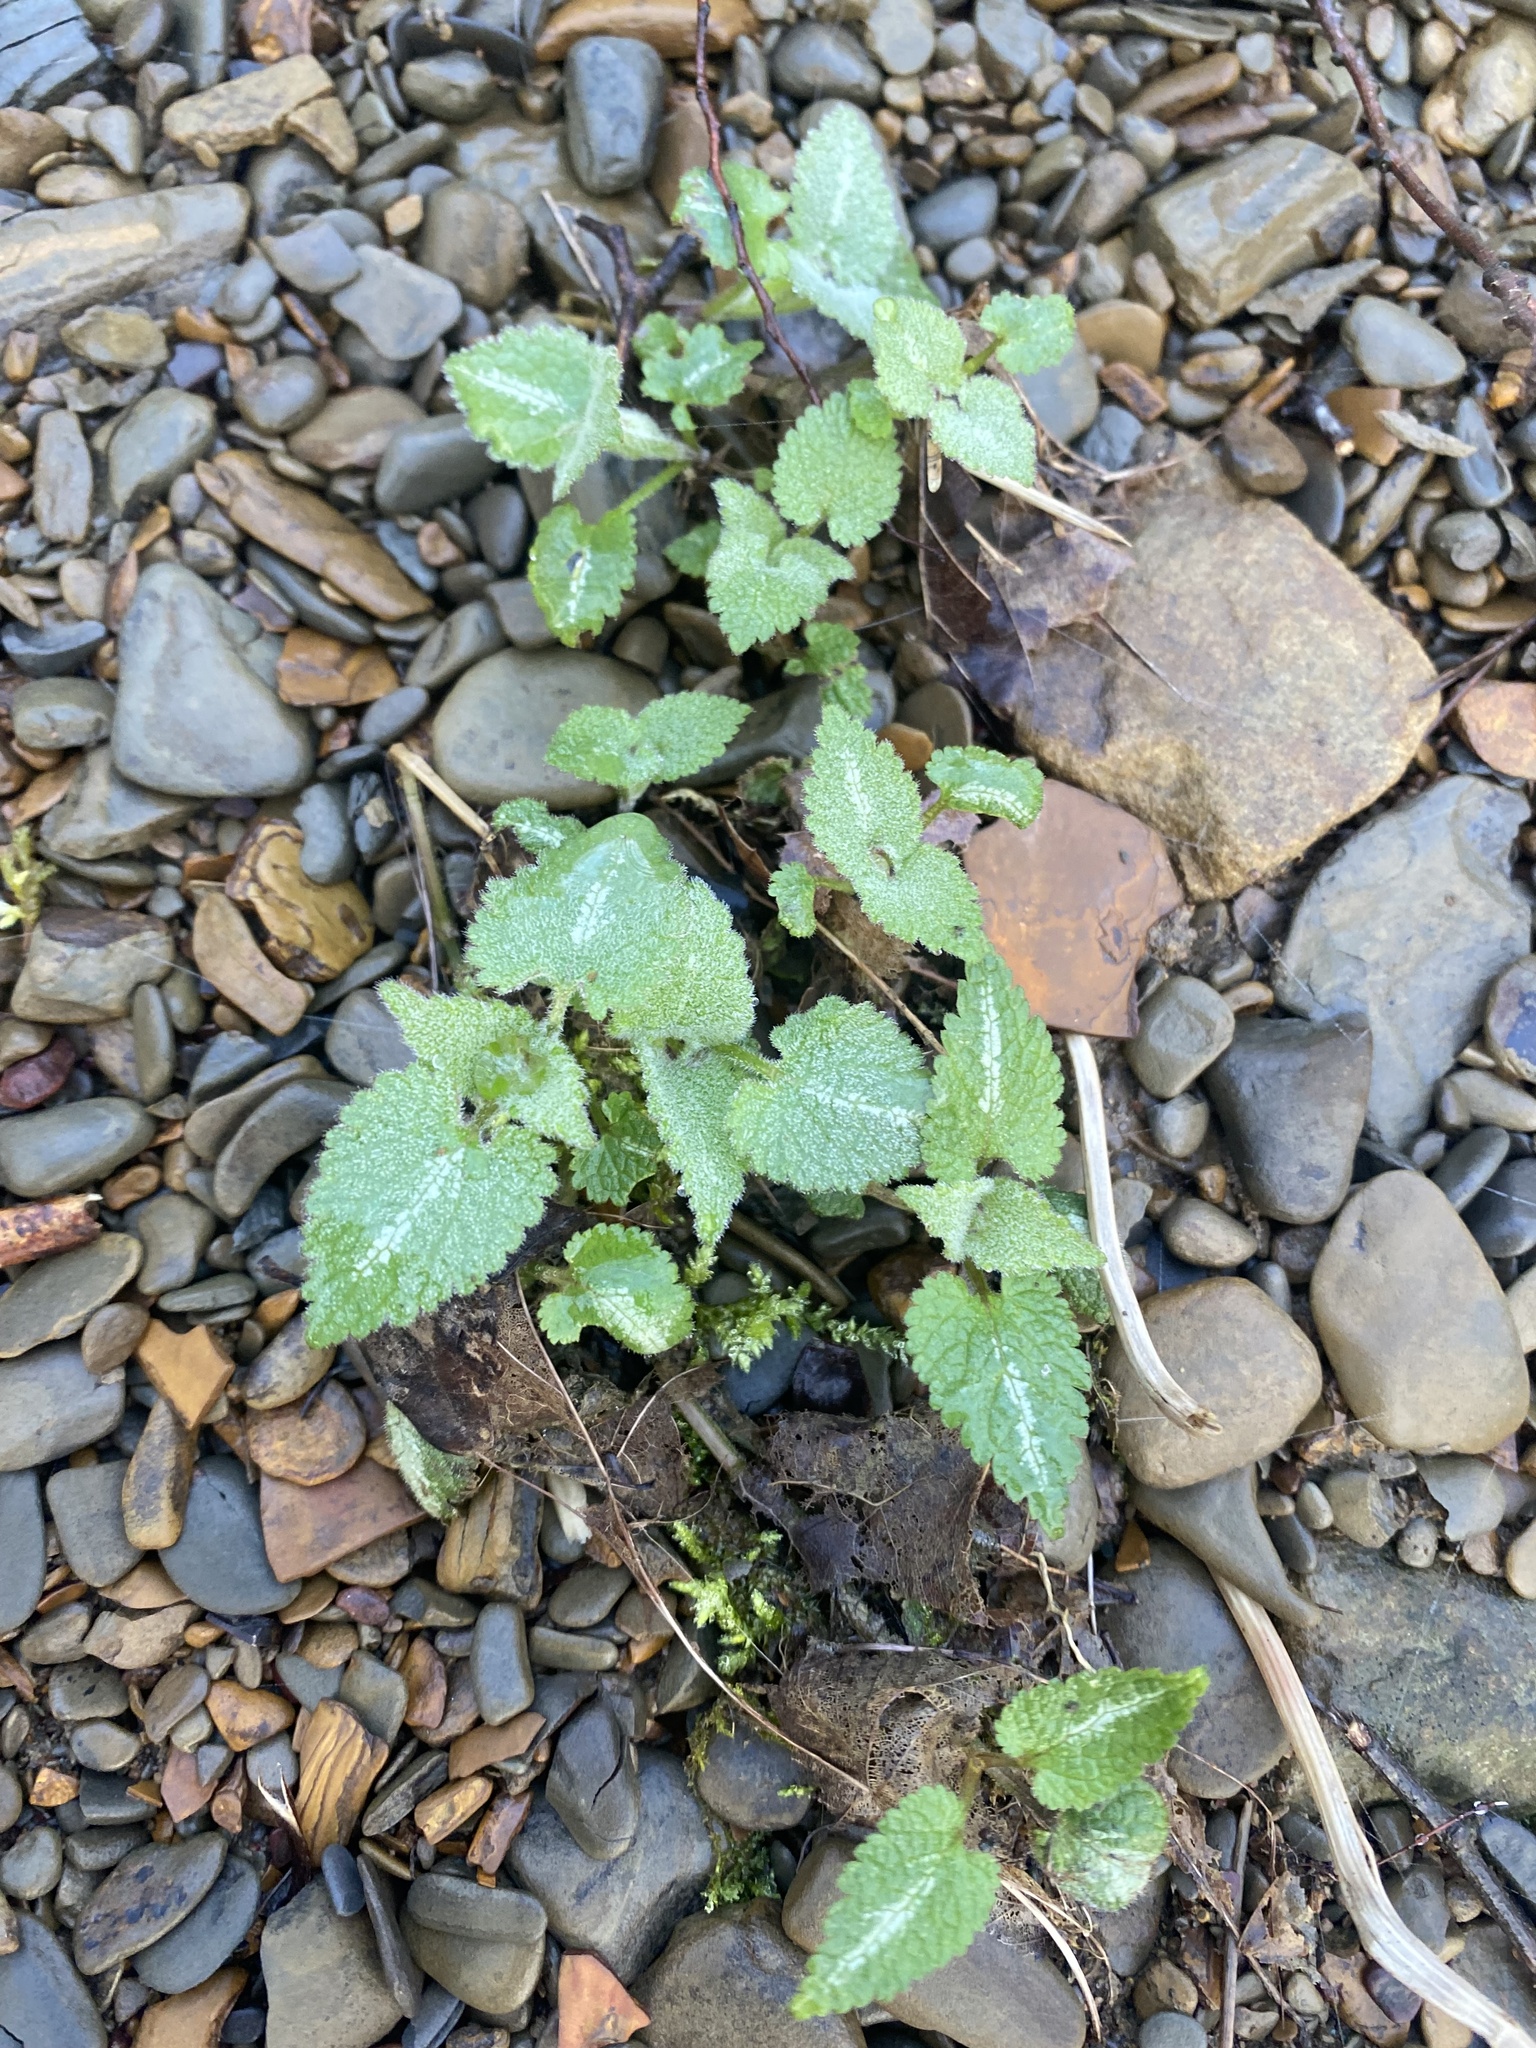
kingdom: Plantae
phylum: Tracheophyta
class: Magnoliopsida
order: Lamiales
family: Lamiaceae
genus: Lamium
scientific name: Lamium maculatum
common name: Spotted dead-nettle
